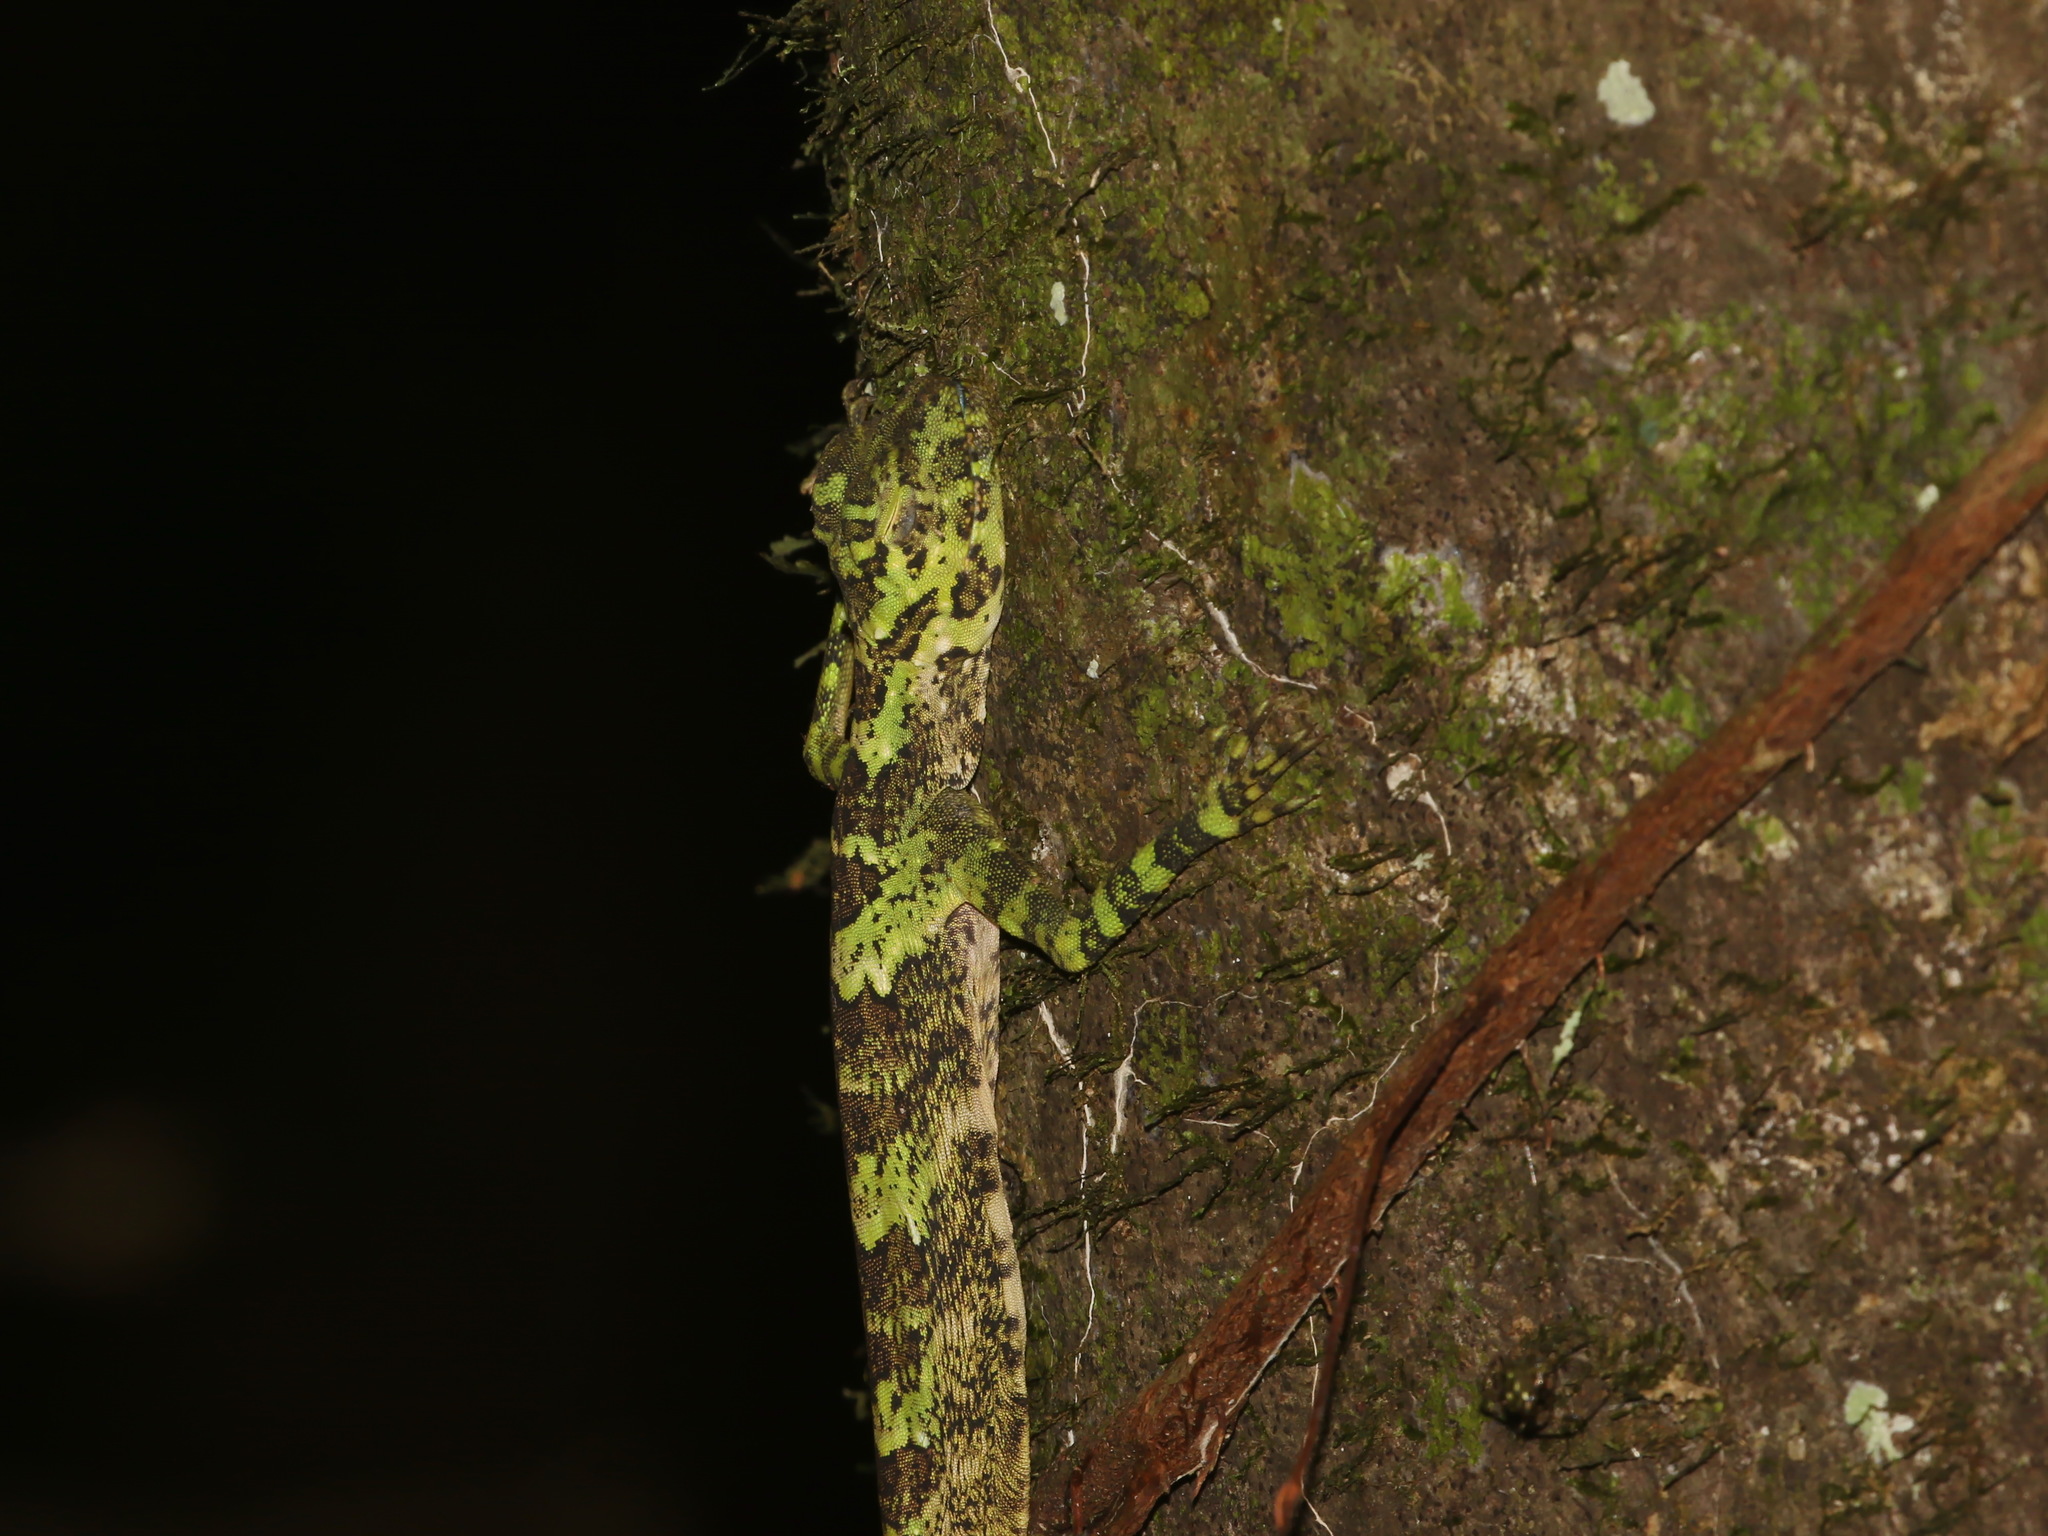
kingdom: Animalia
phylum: Chordata
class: Squamata
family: Agamidae
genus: Draco
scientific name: Draco maximus
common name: Great flying dragon
